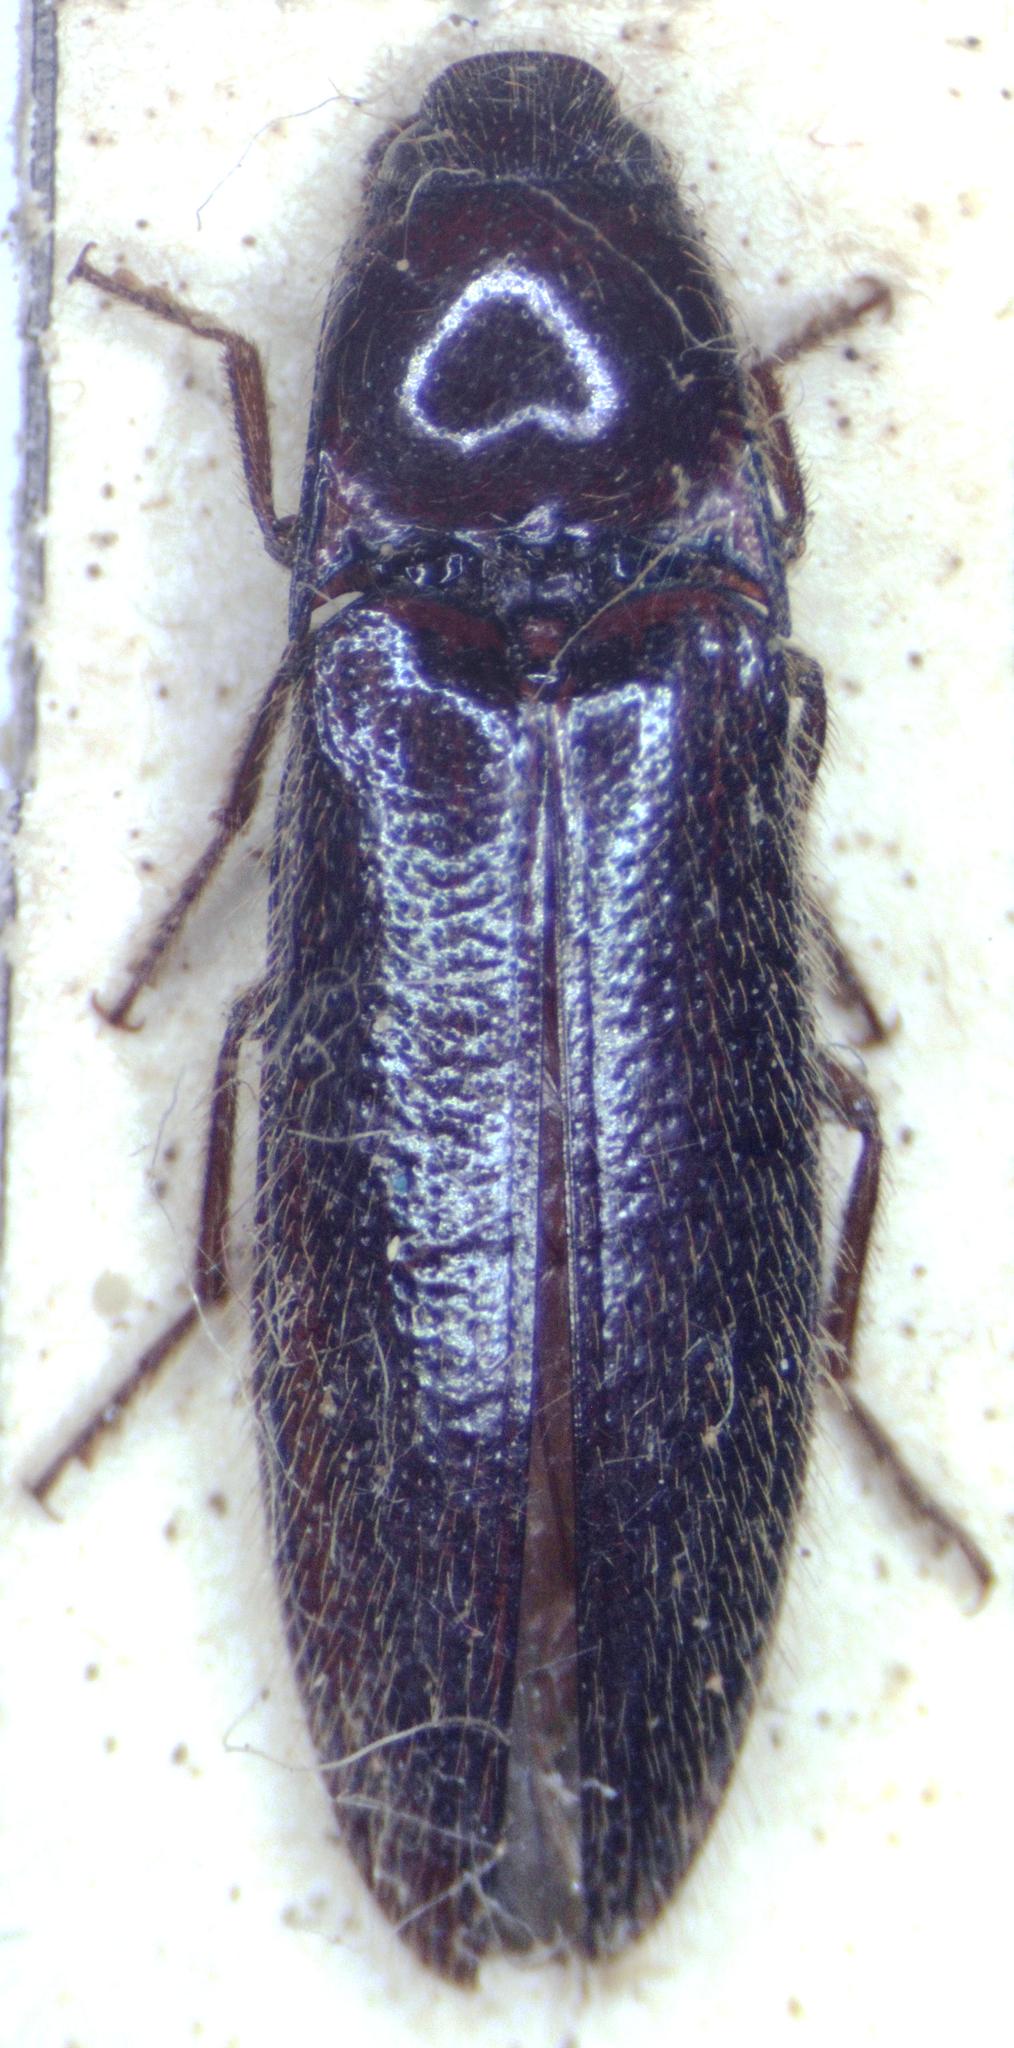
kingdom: Animalia
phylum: Arthropoda
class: Insecta
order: Coleoptera
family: Elateridae
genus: Dipropus
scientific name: Dipropus
